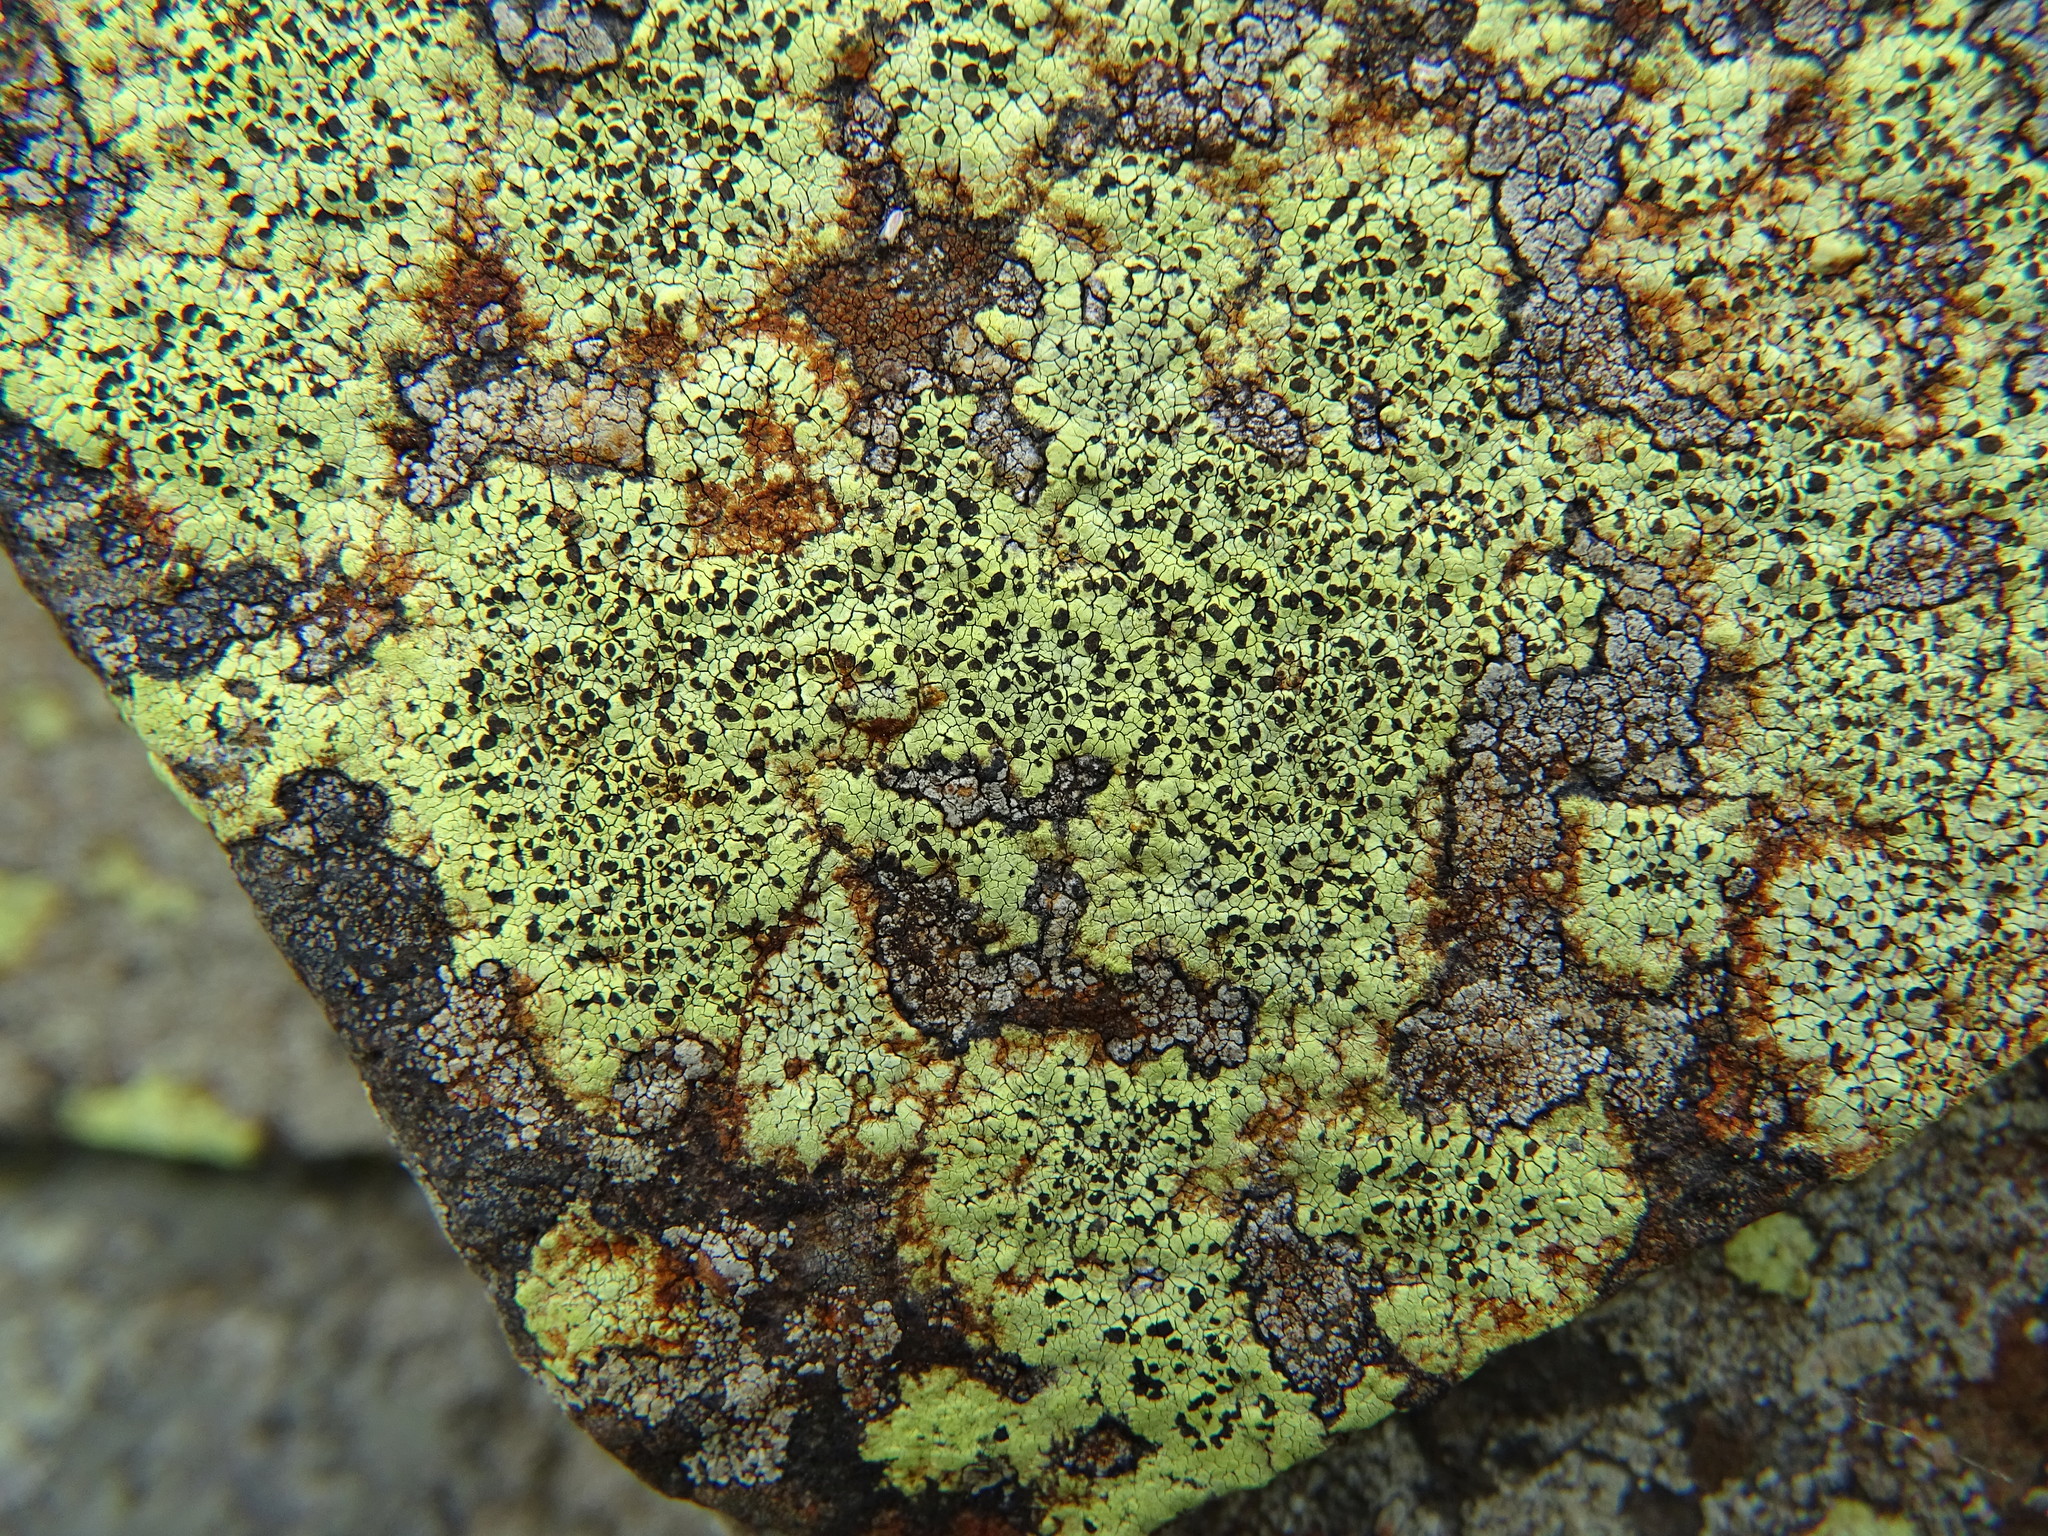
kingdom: Fungi
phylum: Ascomycota
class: Lecanoromycetes
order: Rhizocarpales
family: Rhizocarpaceae
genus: Rhizocarpon
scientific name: Rhizocarpon geographicum
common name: Yellow map lichen
